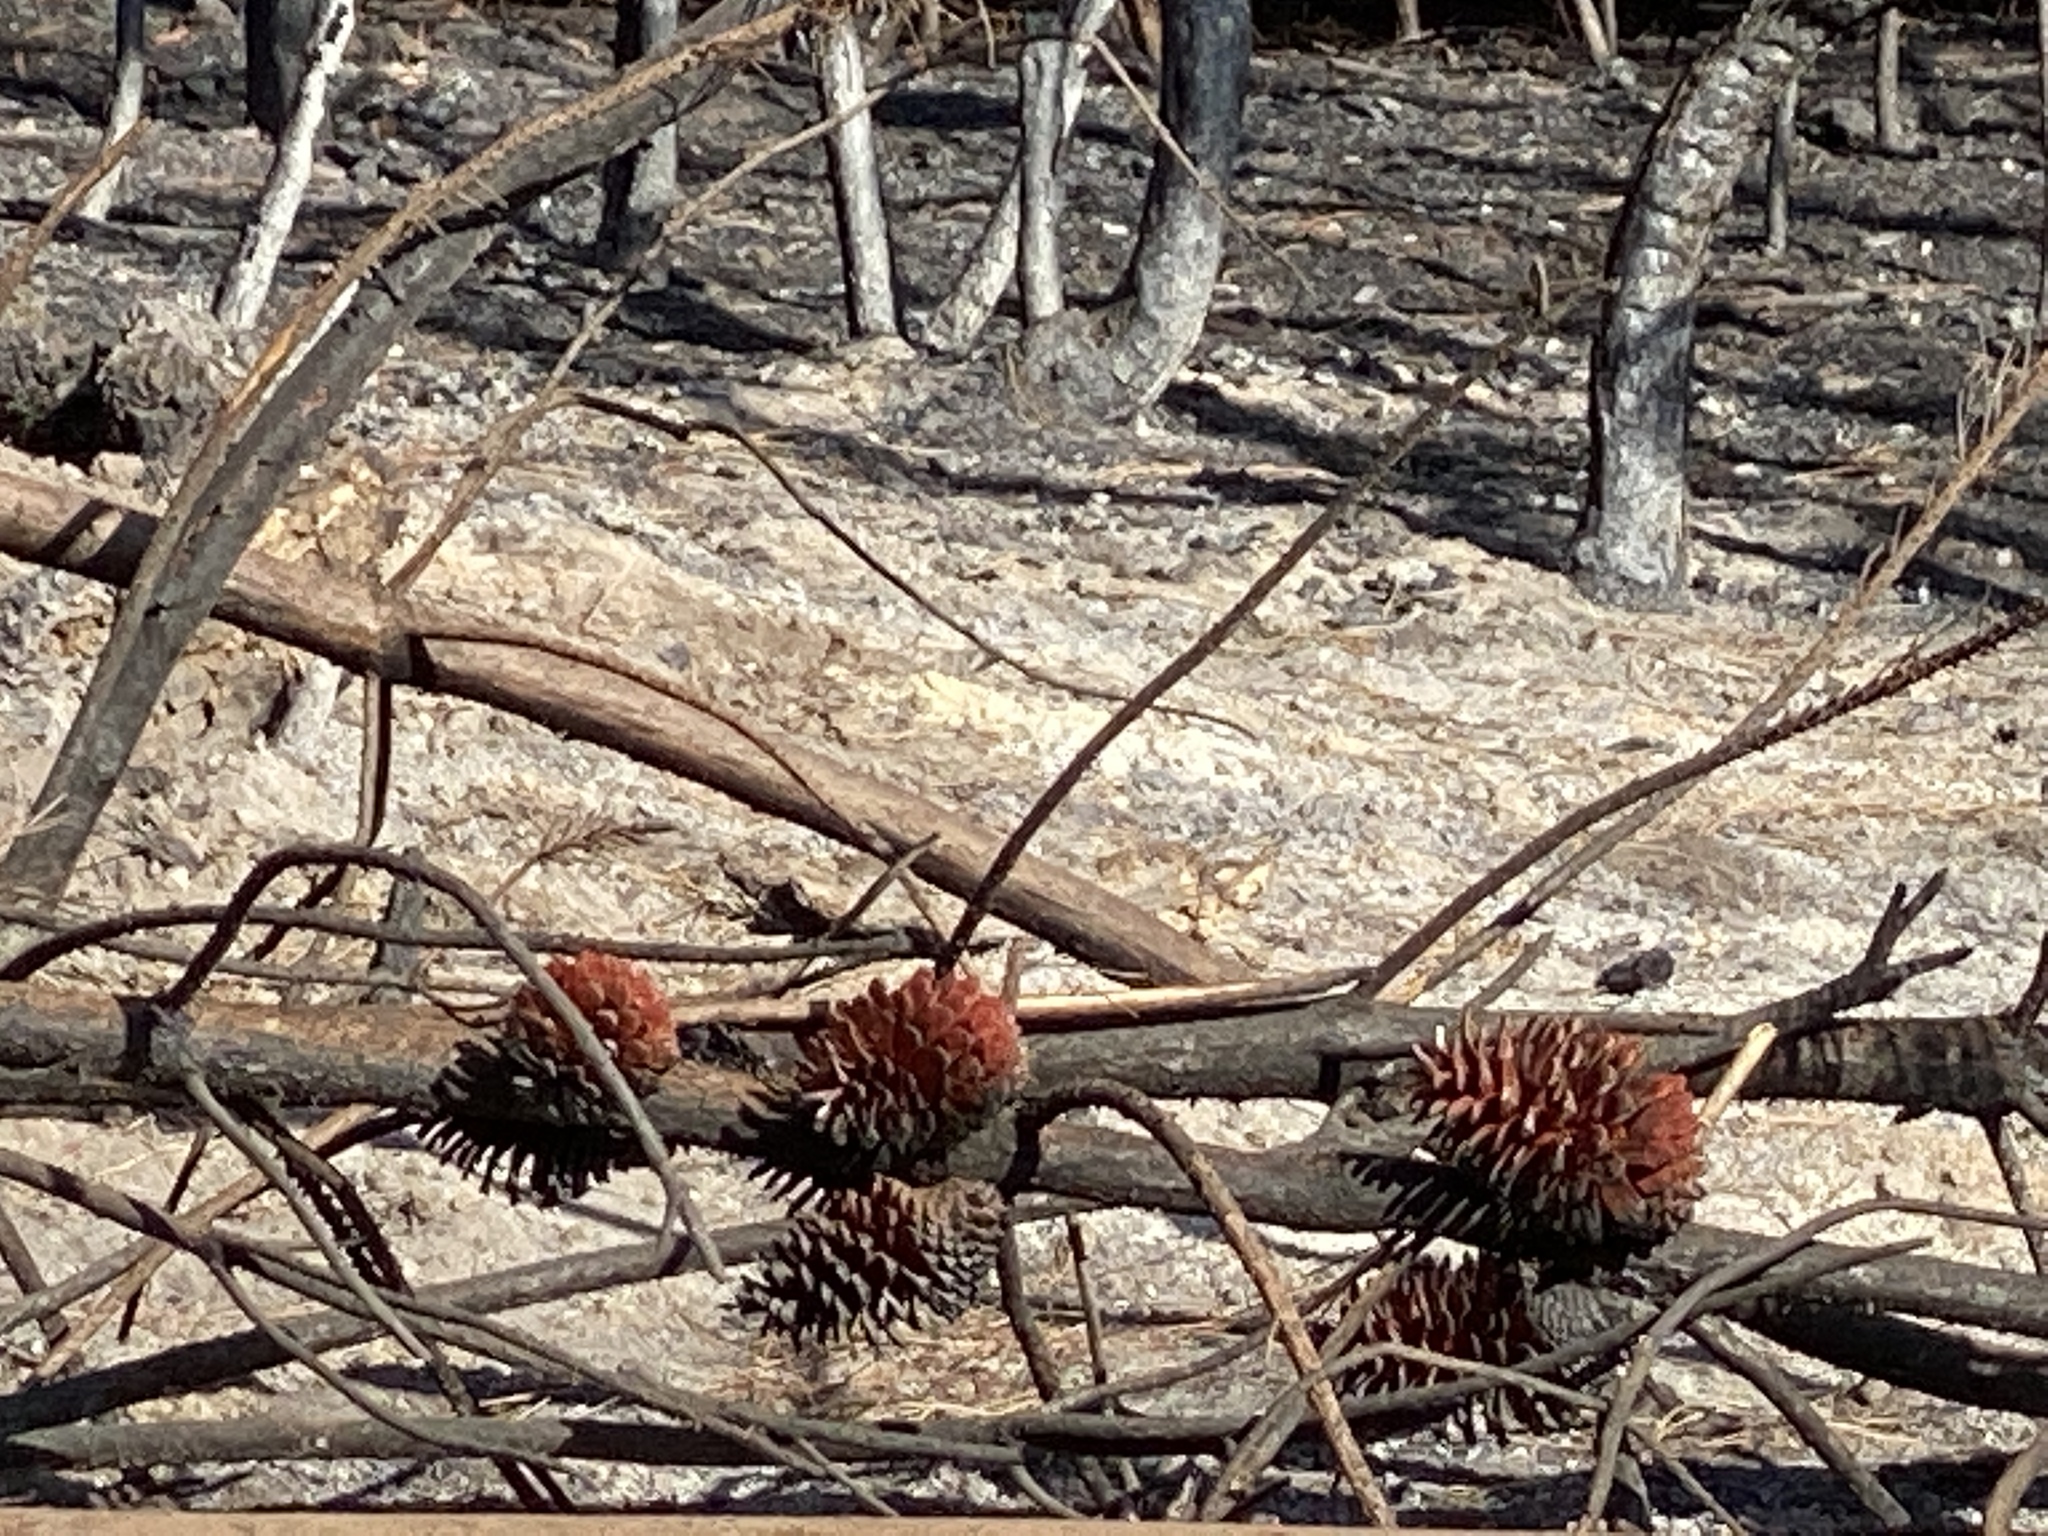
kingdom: Plantae
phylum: Tracheophyta
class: Pinopsida
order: Pinales
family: Pinaceae
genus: Pinus
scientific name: Pinus attenuata
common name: Knobcone pine
